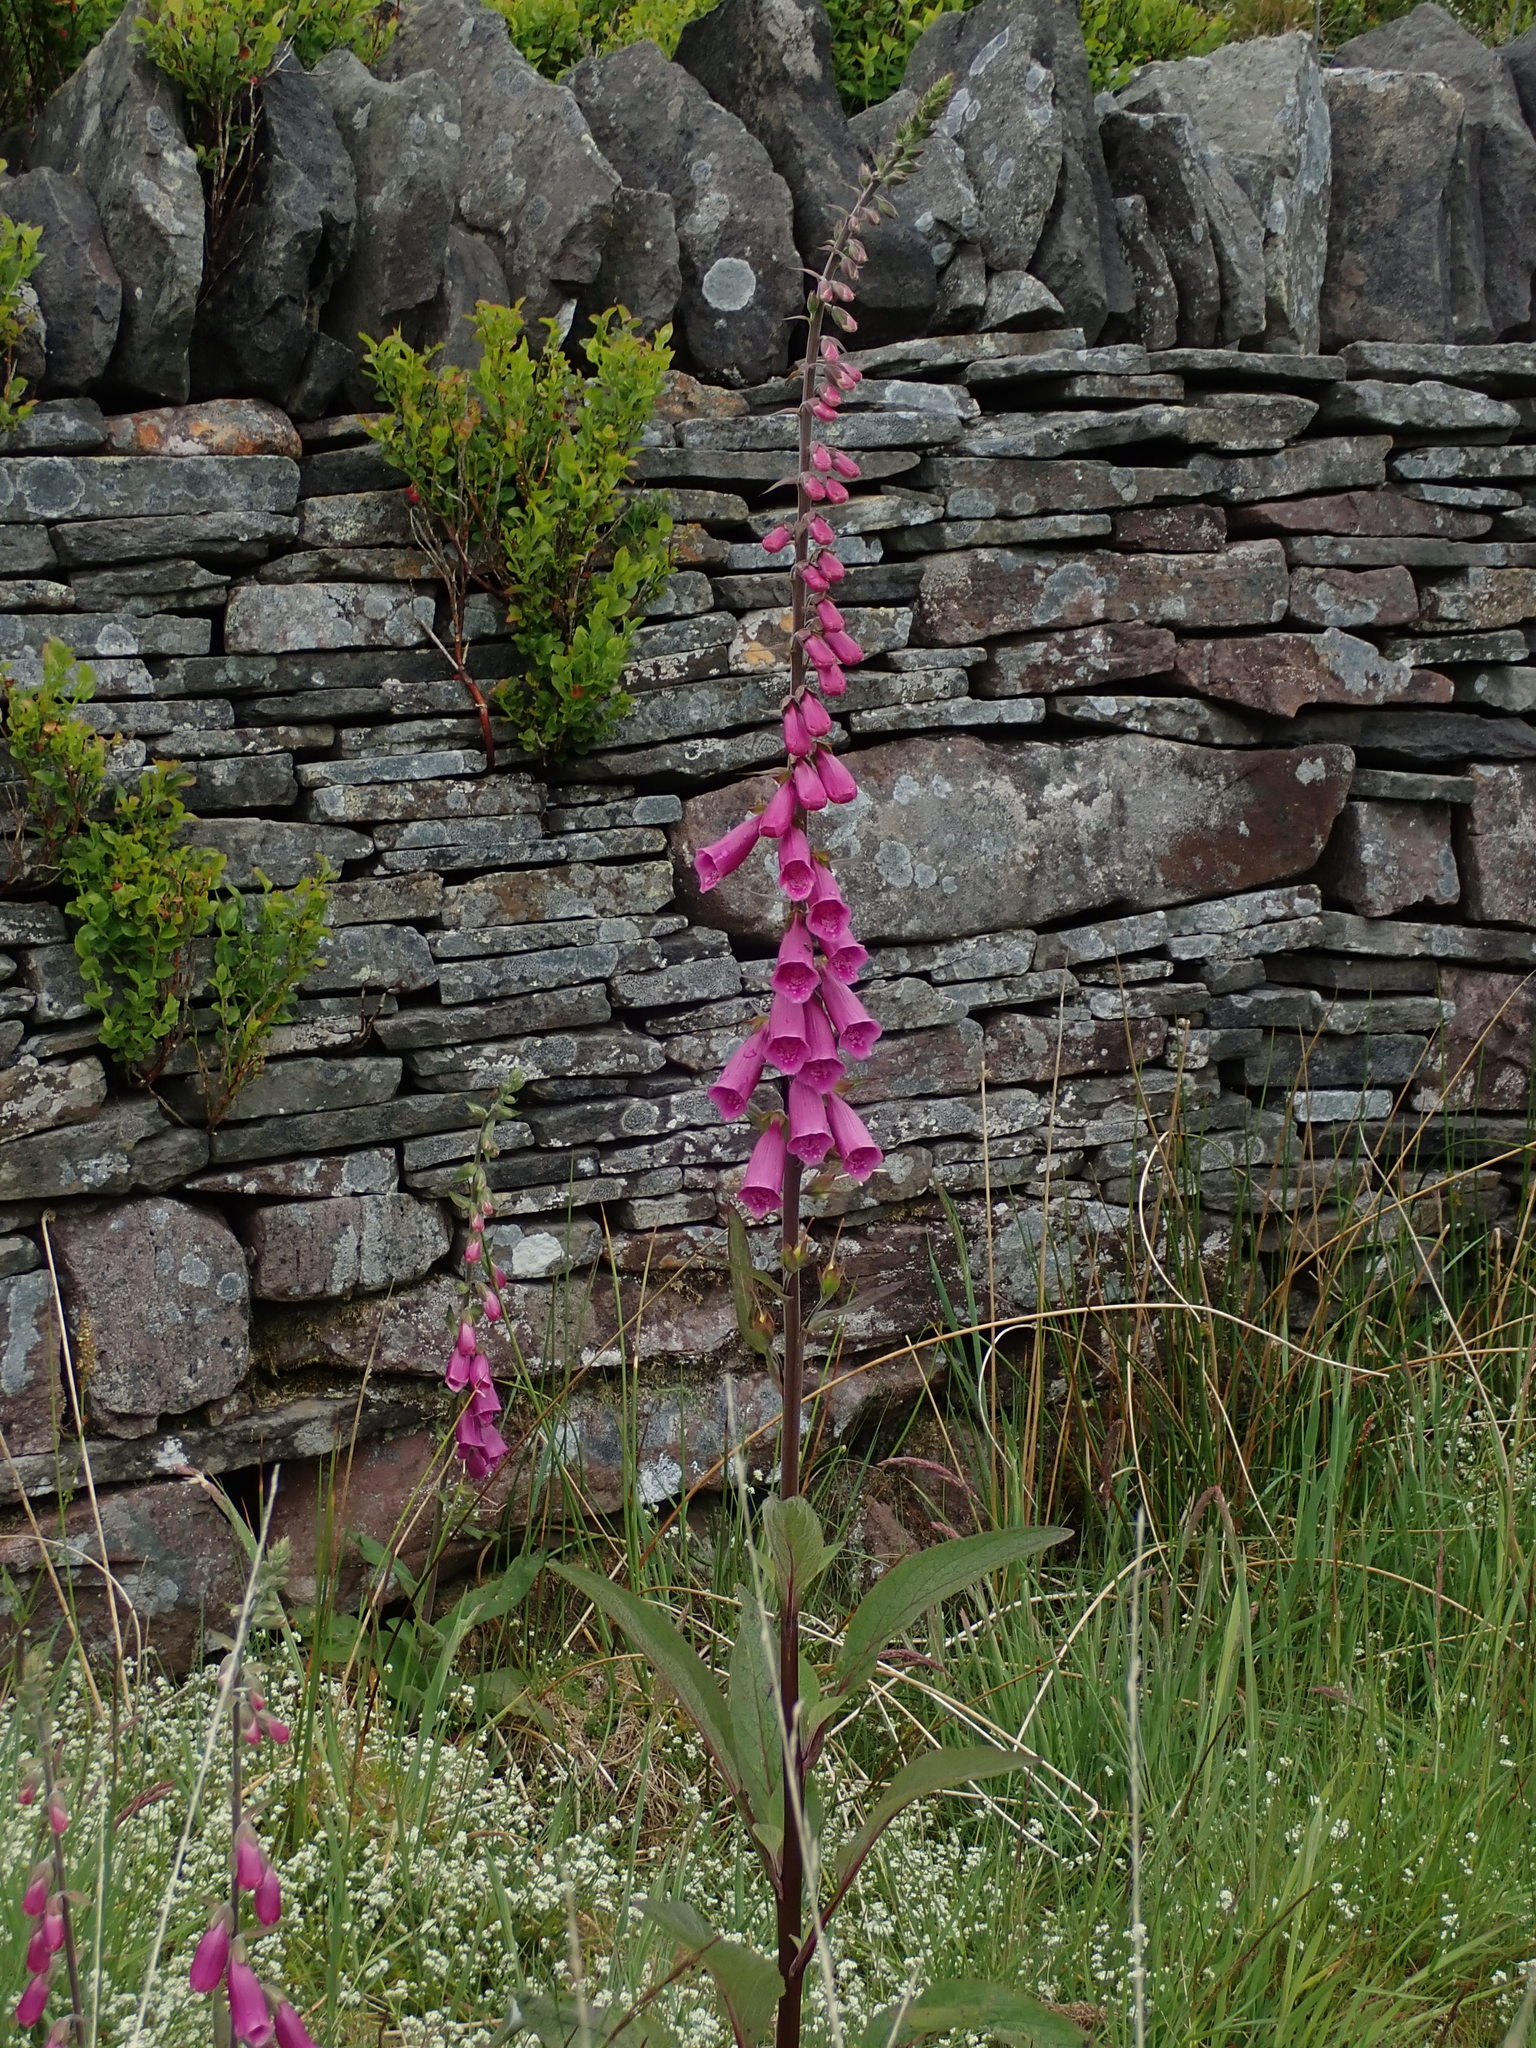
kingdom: Plantae
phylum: Tracheophyta
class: Magnoliopsida
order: Lamiales
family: Plantaginaceae
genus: Digitalis
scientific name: Digitalis purpurea
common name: Foxglove
